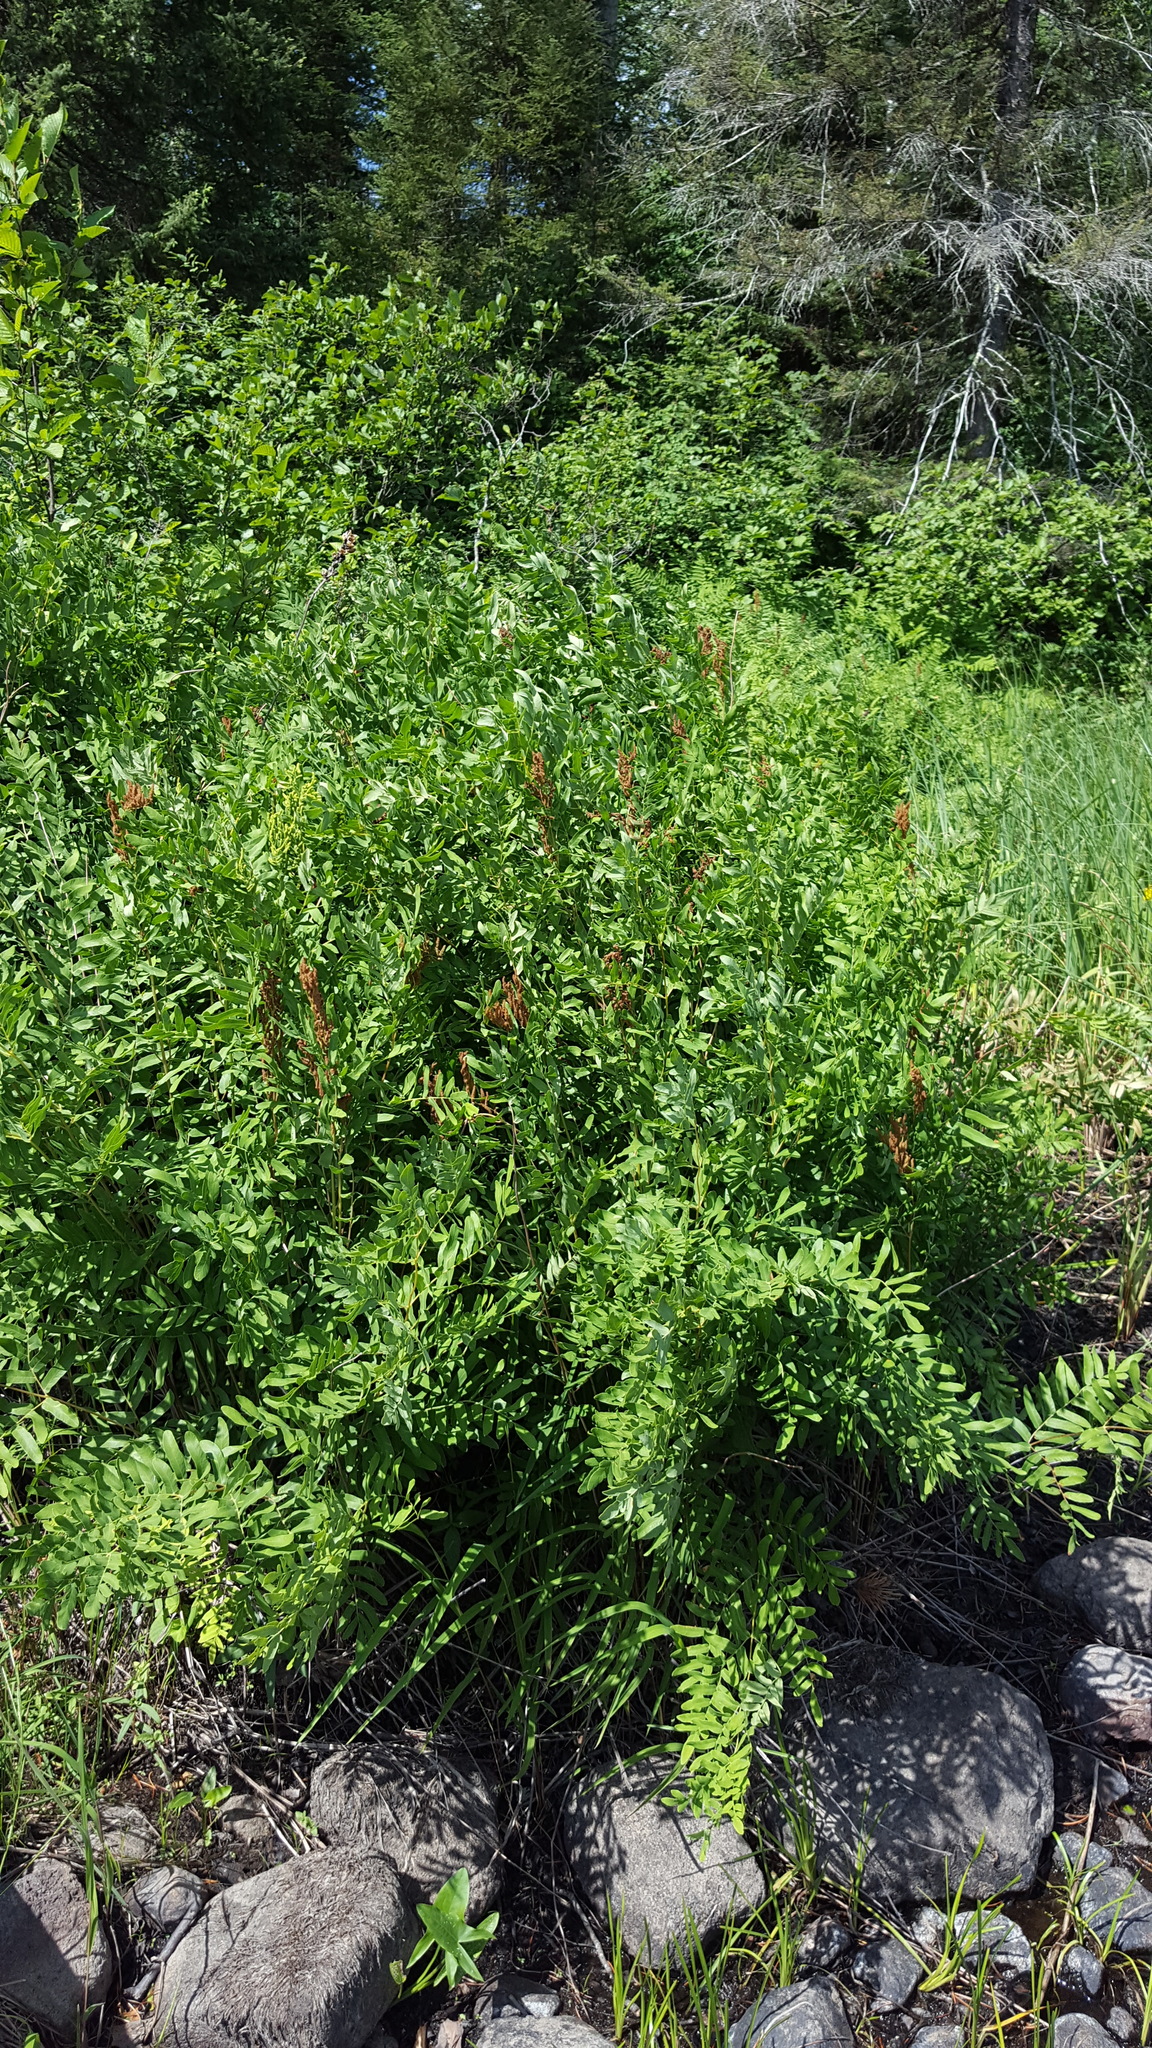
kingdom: Plantae
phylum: Tracheophyta
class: Polypodiopsida
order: Osmundales
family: Osmundaceae
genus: Osmunda
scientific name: Osmunda spectabilis
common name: American royal fern
